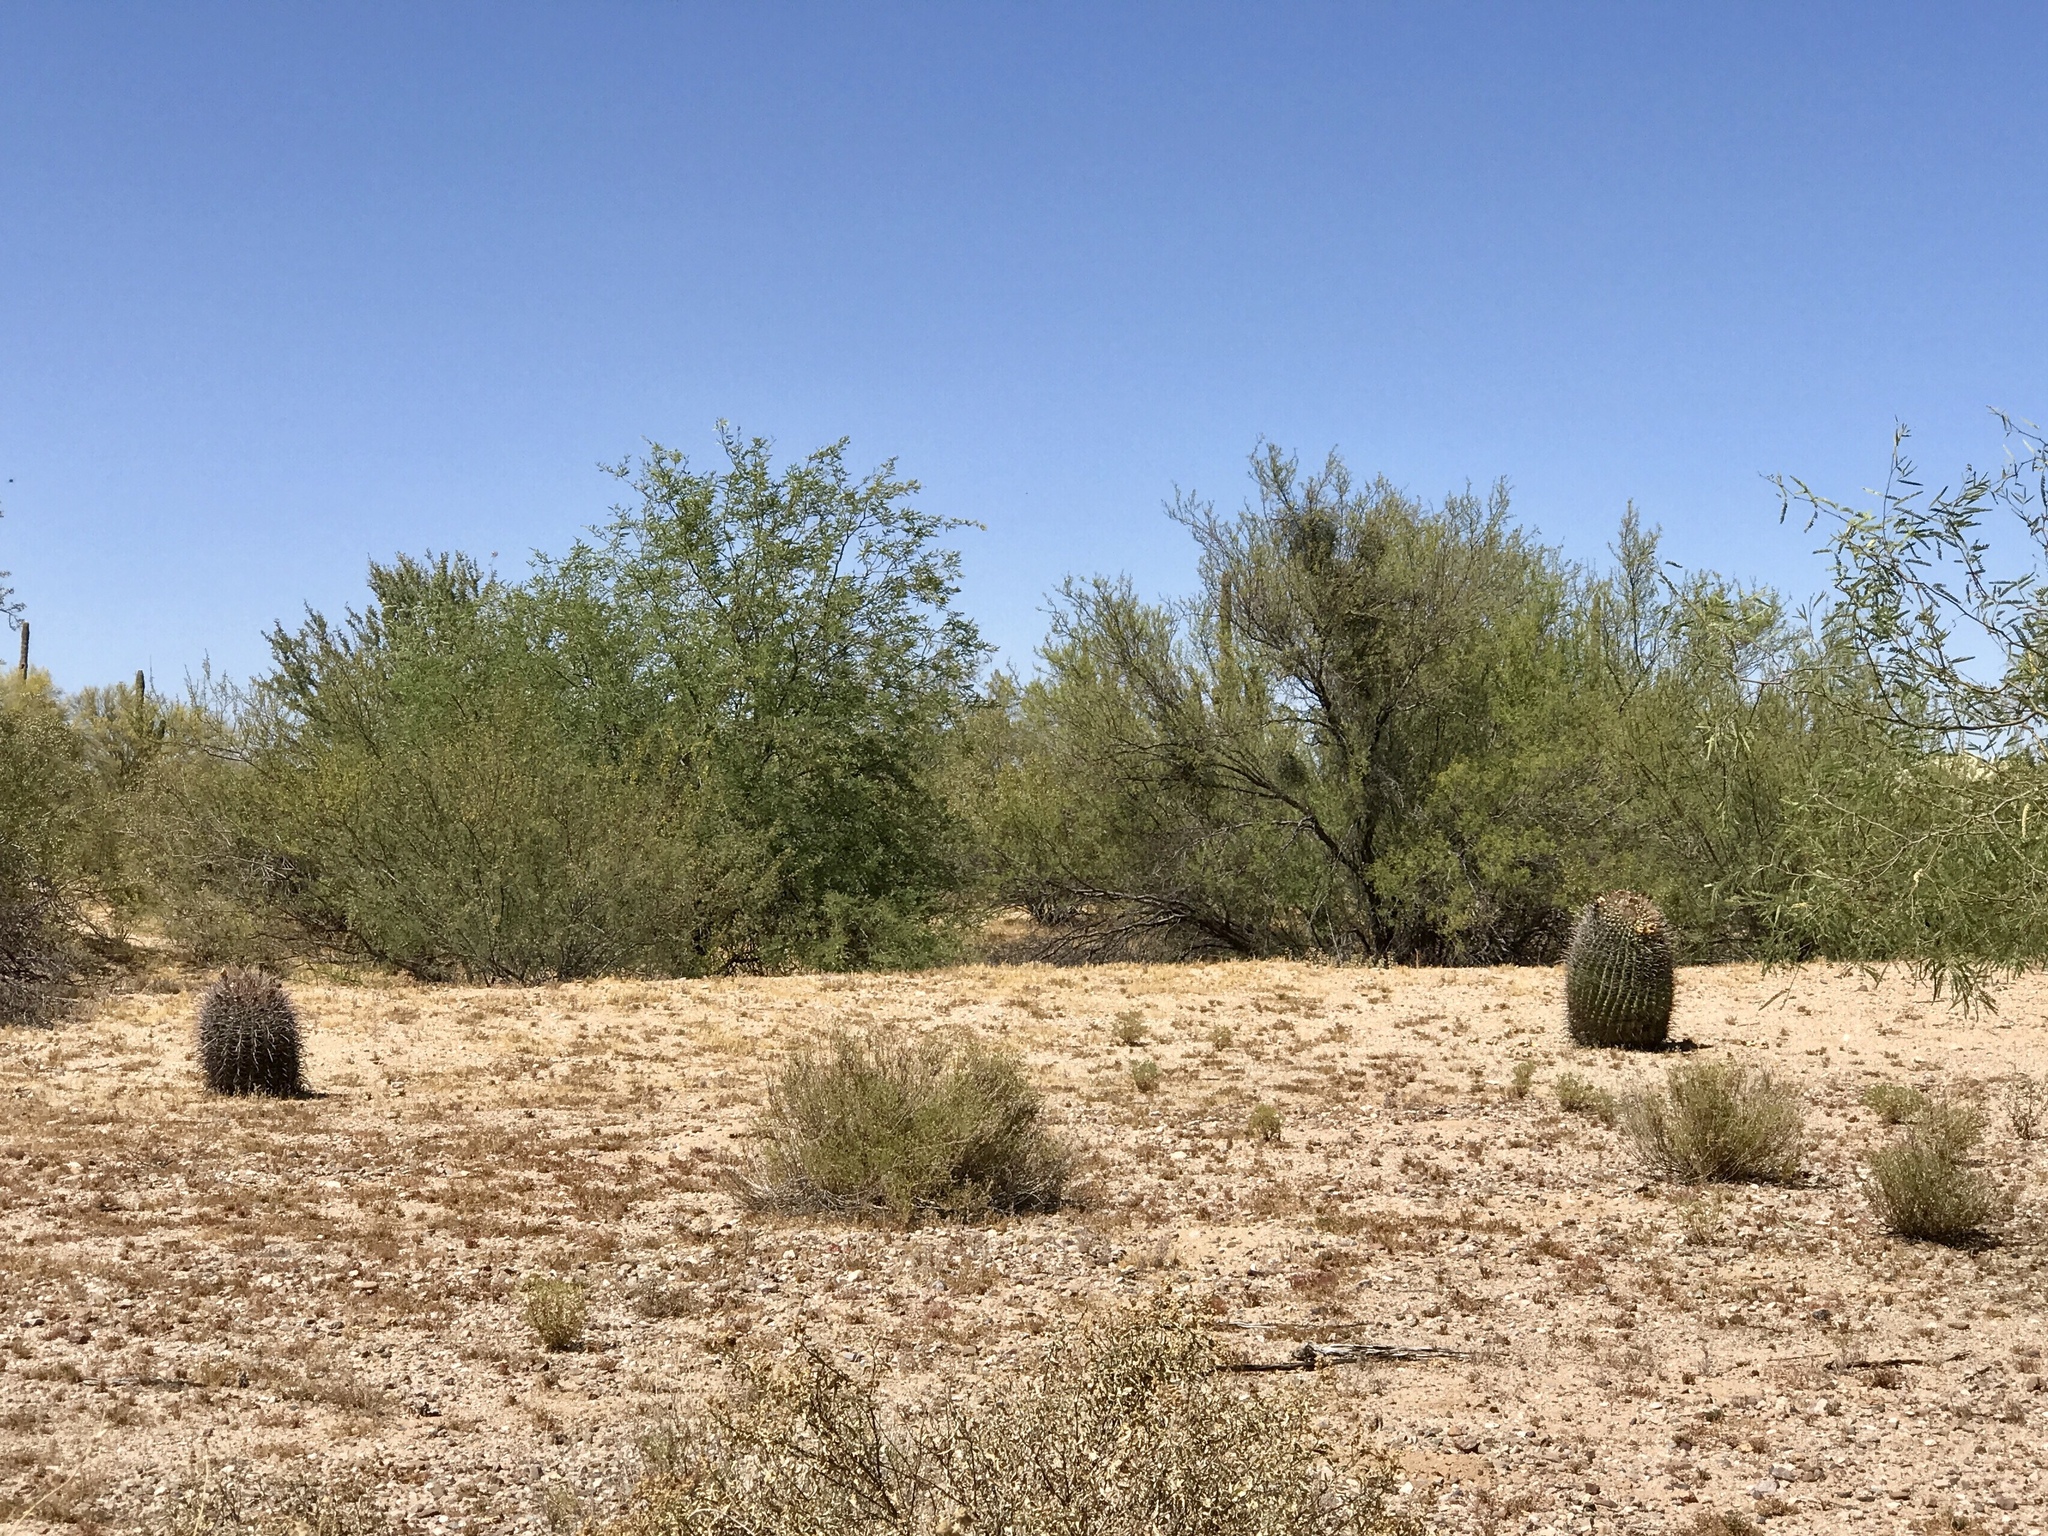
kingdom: Plantae
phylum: Tracheophyta
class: Magnoliopsida
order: Caryophyllales
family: Cactaceae
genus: Ferocactus
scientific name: Ferocactus wislizeni
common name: Candy barrel cactus
